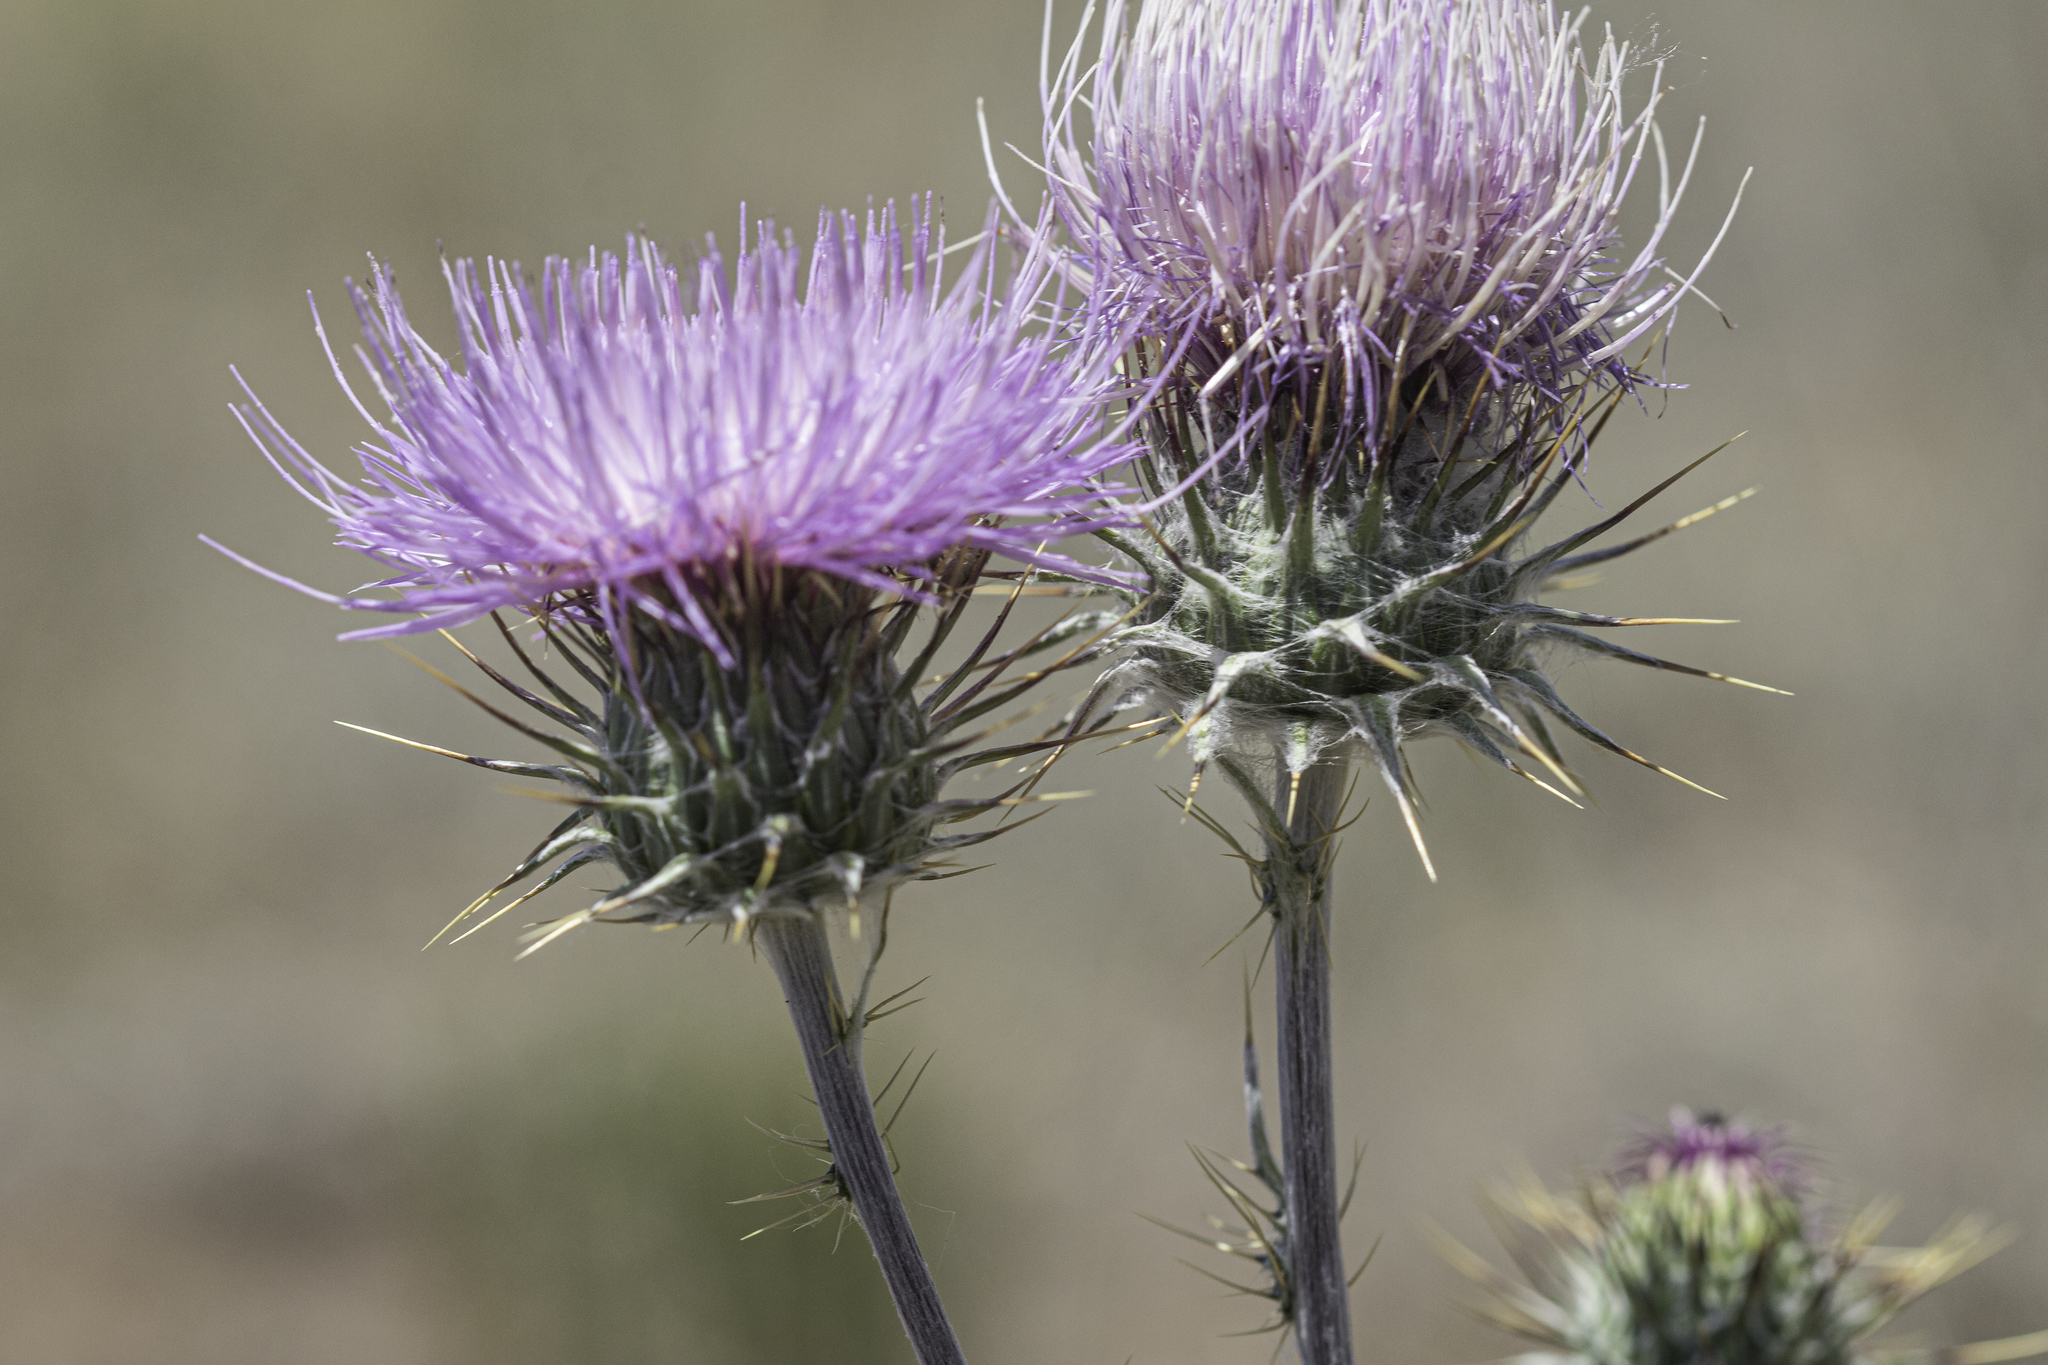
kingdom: Plantae
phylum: Tracheophyta
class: Magnoliopsida
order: Asterales
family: Asteraceae
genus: Cirsium
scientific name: Cirsium neomexicanum
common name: New mexico thistle
